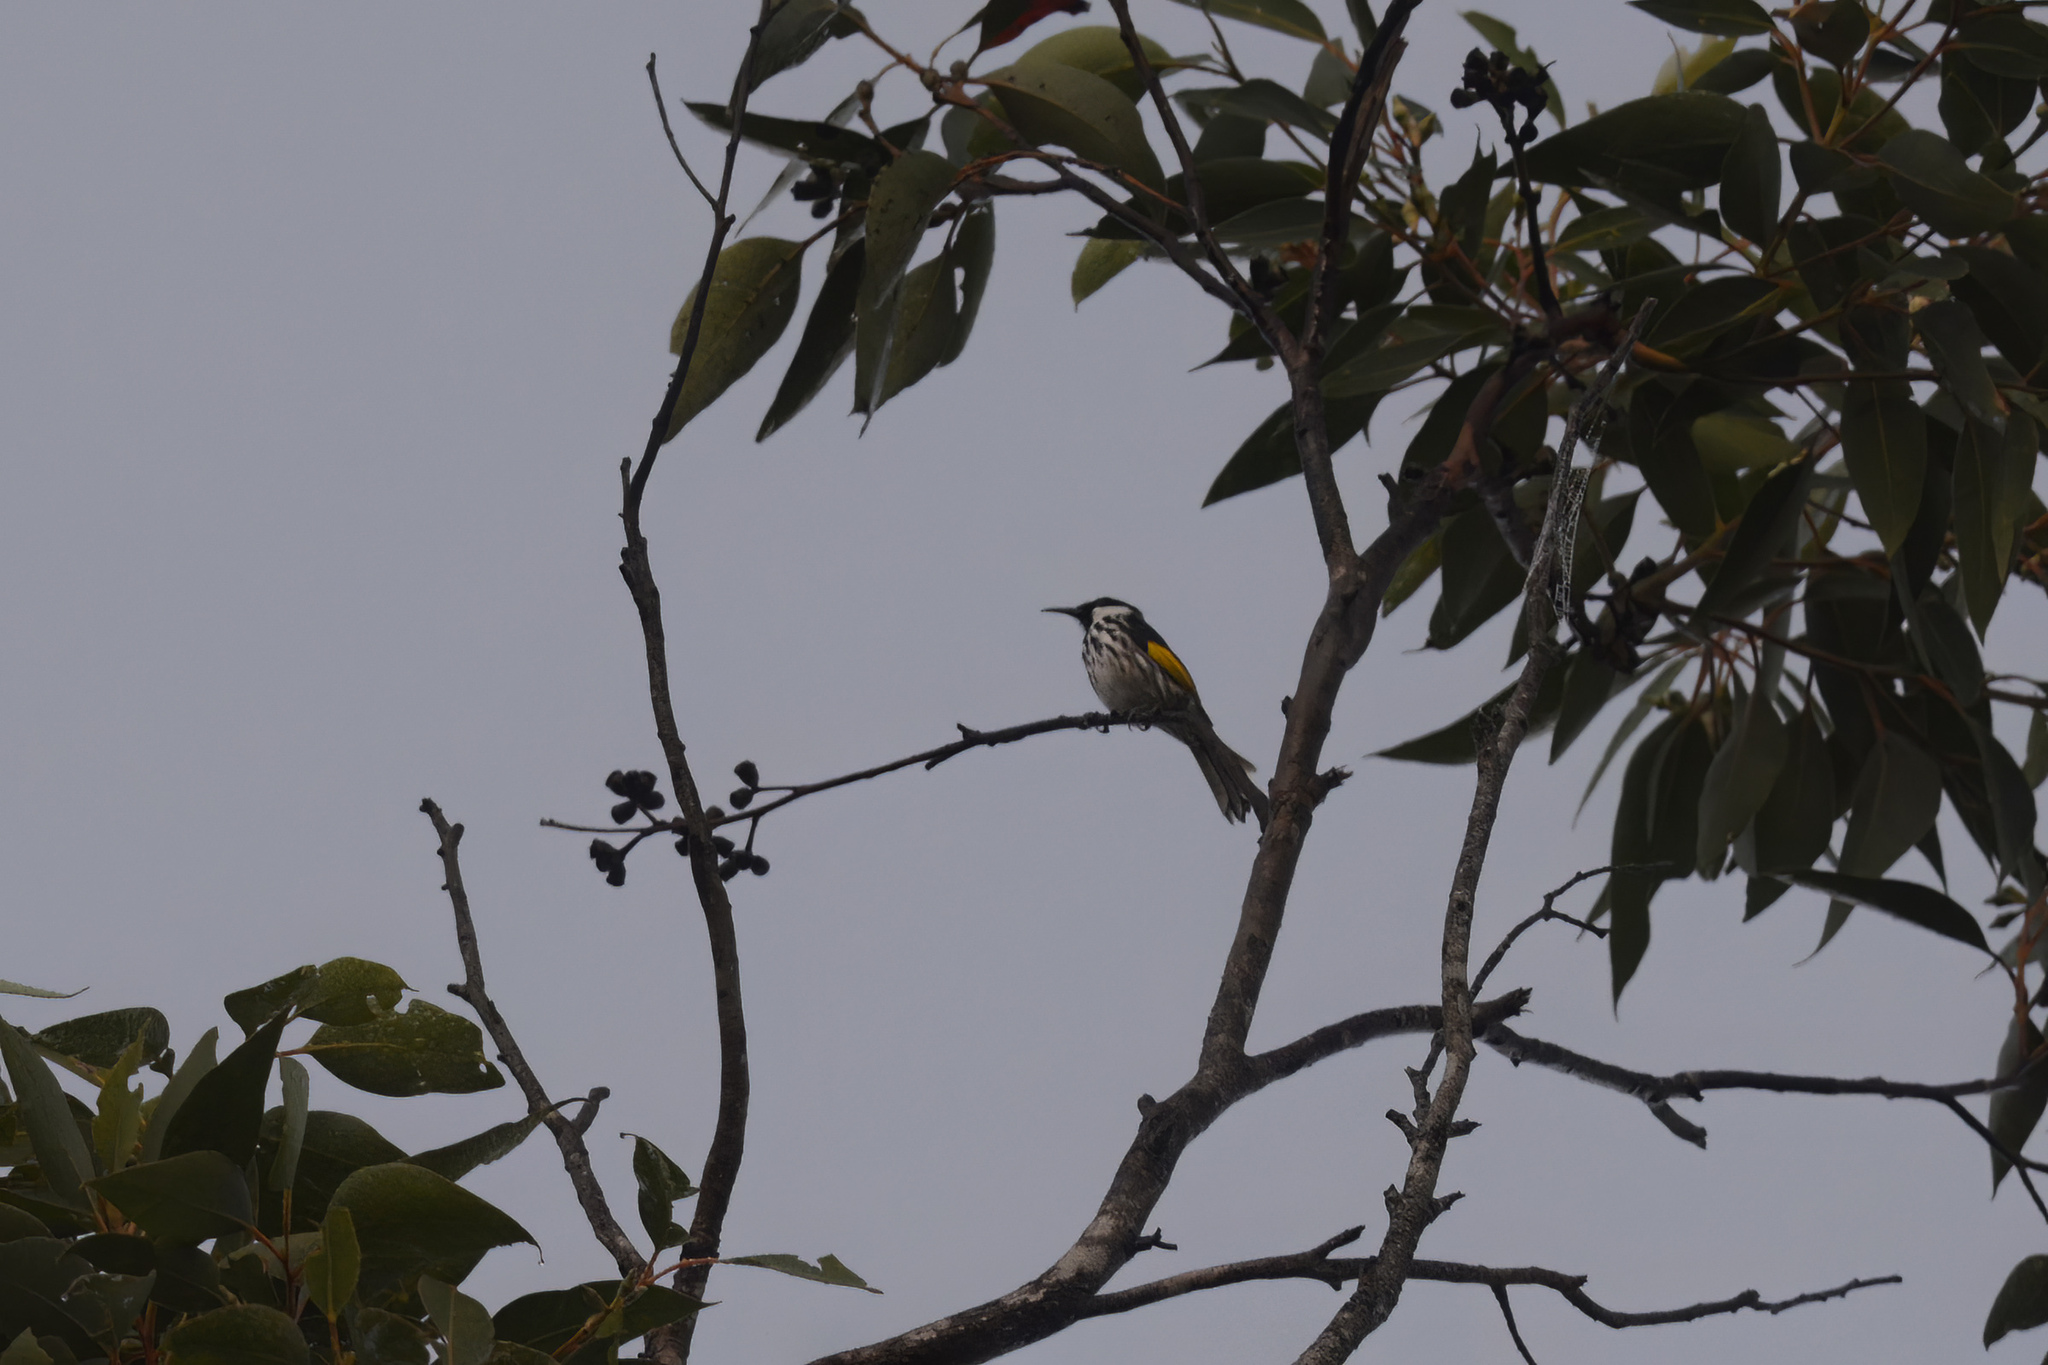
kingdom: Animalia
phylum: Chordata
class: Aves
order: Passeriformes
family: Meliphagidae
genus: Phylidonyris
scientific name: Phylidonyris niger
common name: White-cheeked honeyeater
